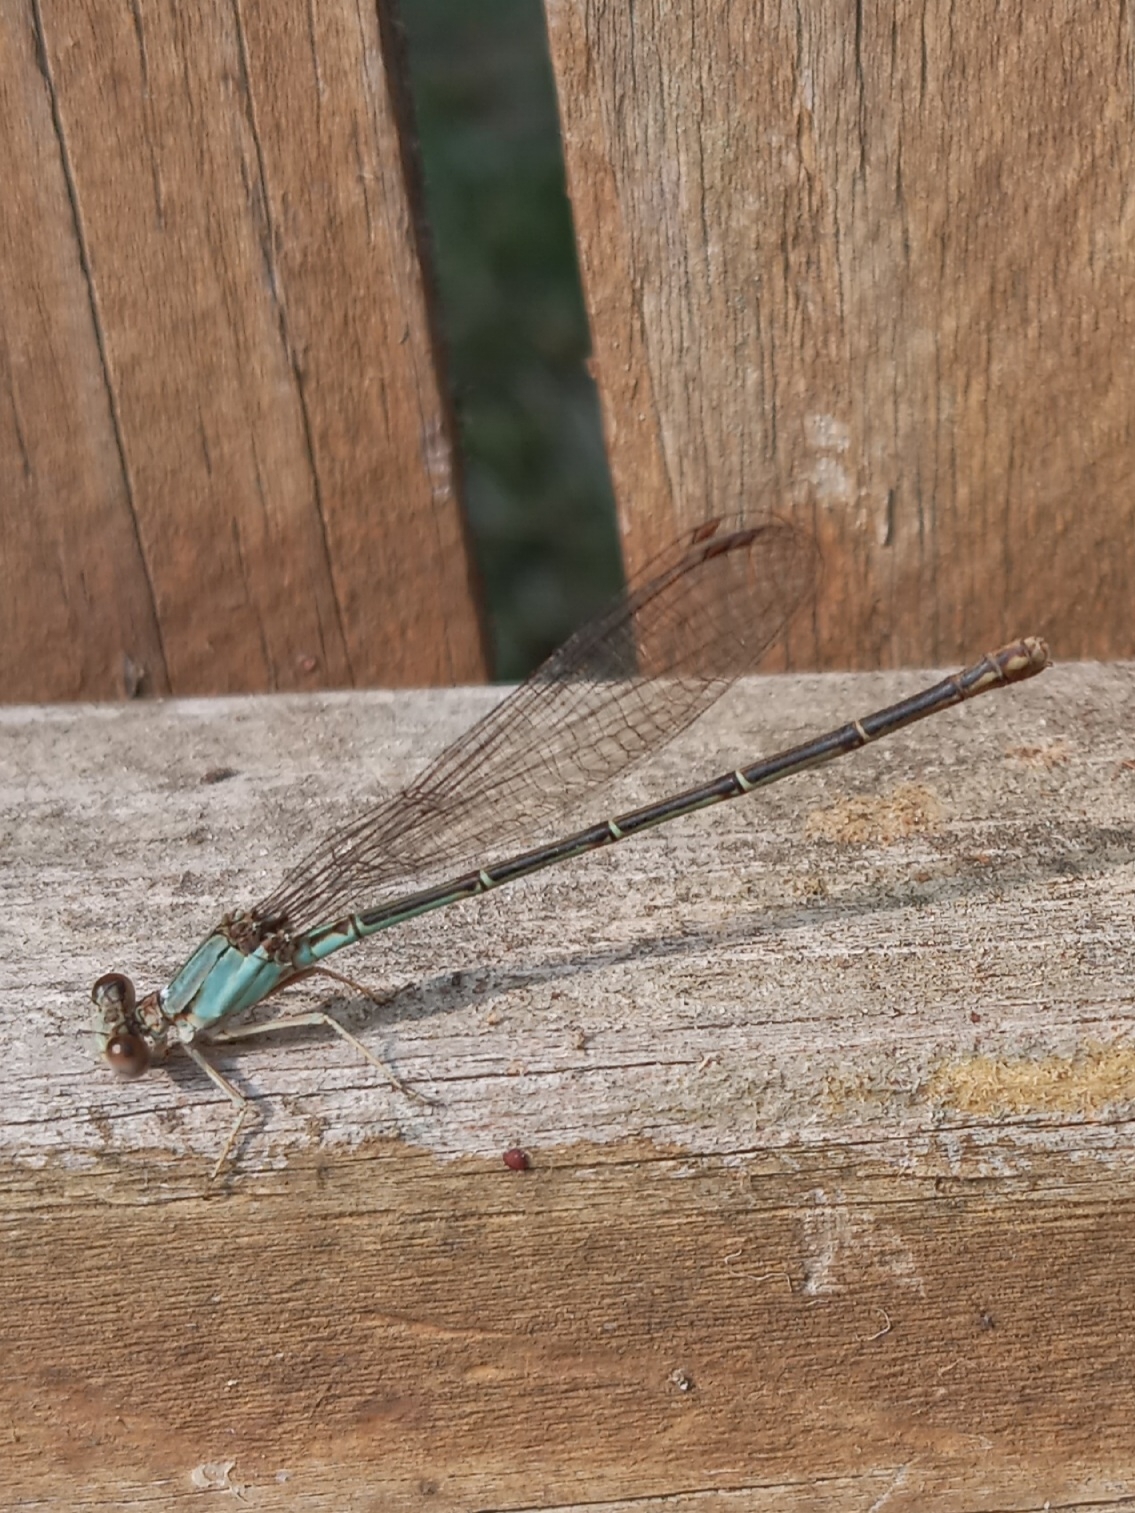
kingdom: Animalia
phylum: Arthropoda
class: Insecta
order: Odonata
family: Coenagrionidae
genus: Argia
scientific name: Argia apicalis
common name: Blue-fronted dancer
